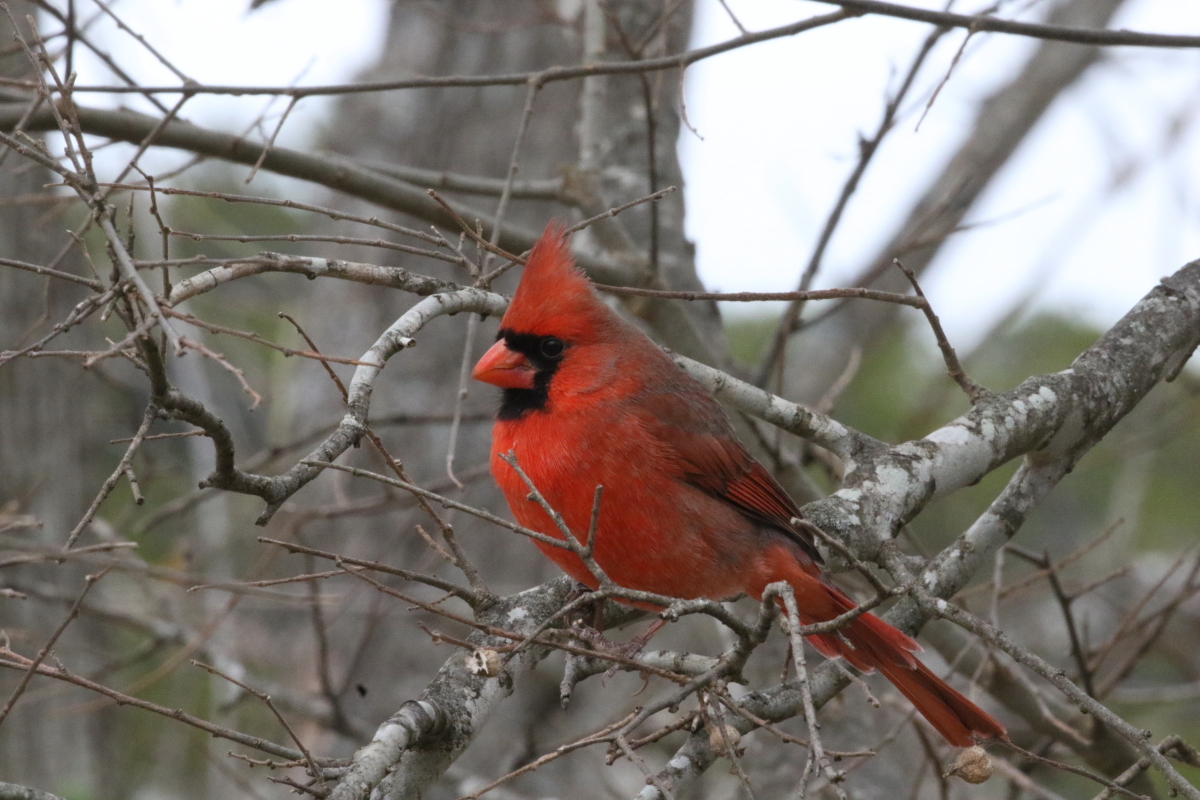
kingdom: Animalia
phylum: Chordata
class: Aves
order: Passeriformes
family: Cardinalidae
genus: Cardinalis
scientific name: Cardinalis cardinalis
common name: Northern cardinal
